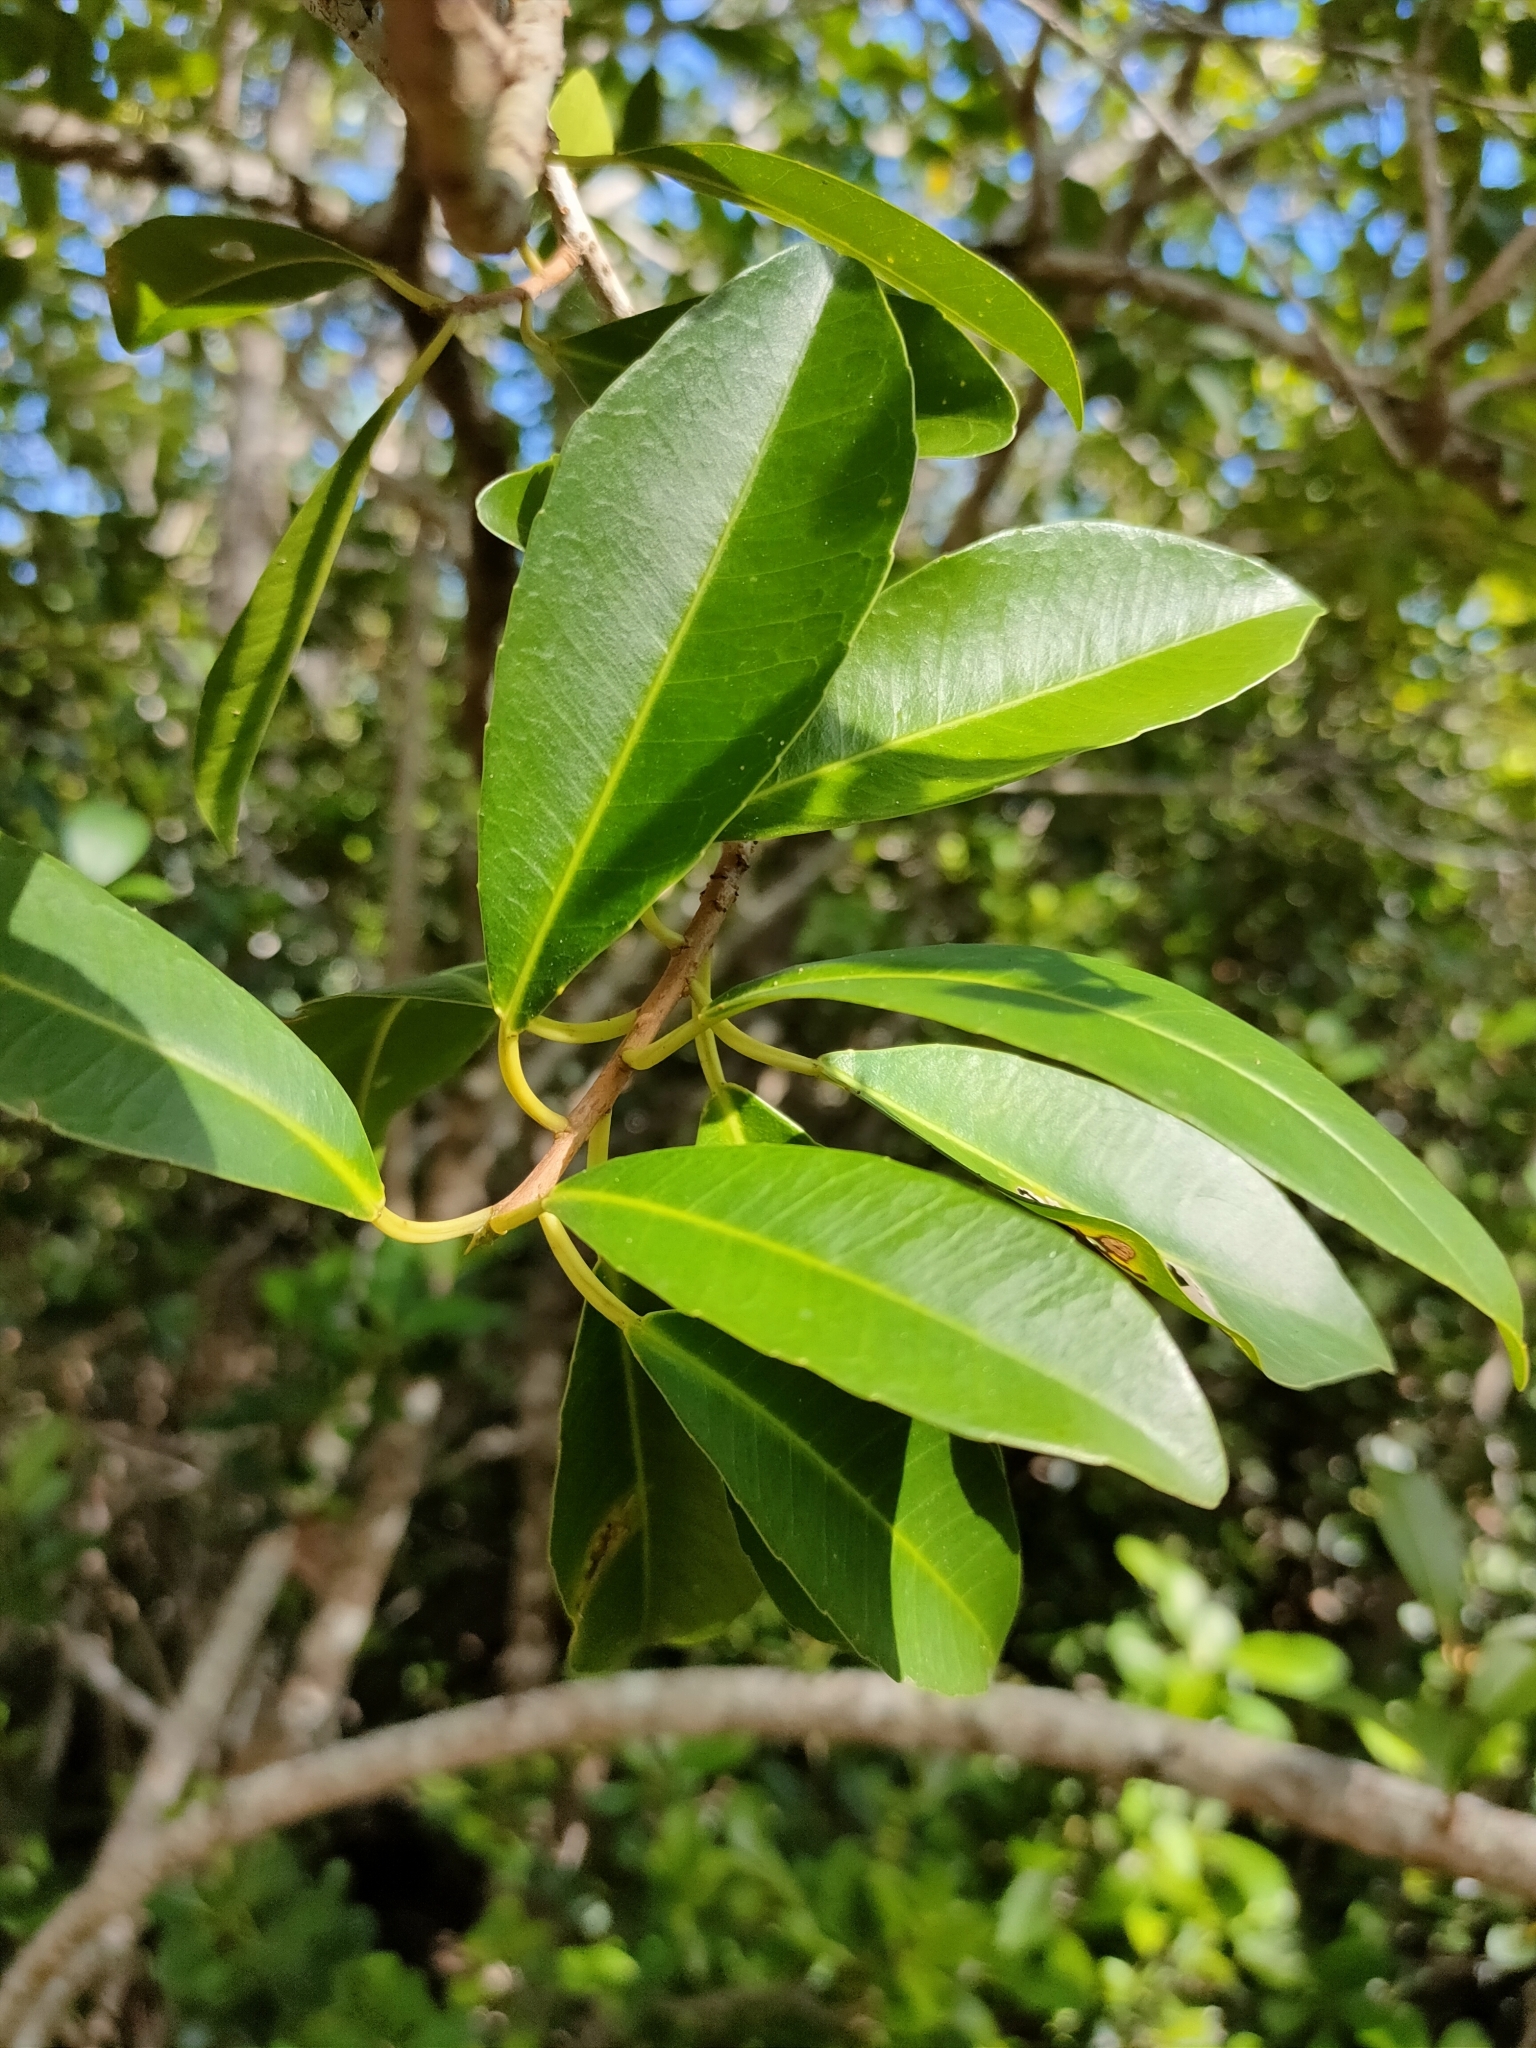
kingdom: Plantae
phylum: Tracheophyta
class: Magnoliopsida
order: Malpighiales
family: Euphorbiaceae
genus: Excoecaria
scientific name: Excoecaria agallocha
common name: River poisontree
